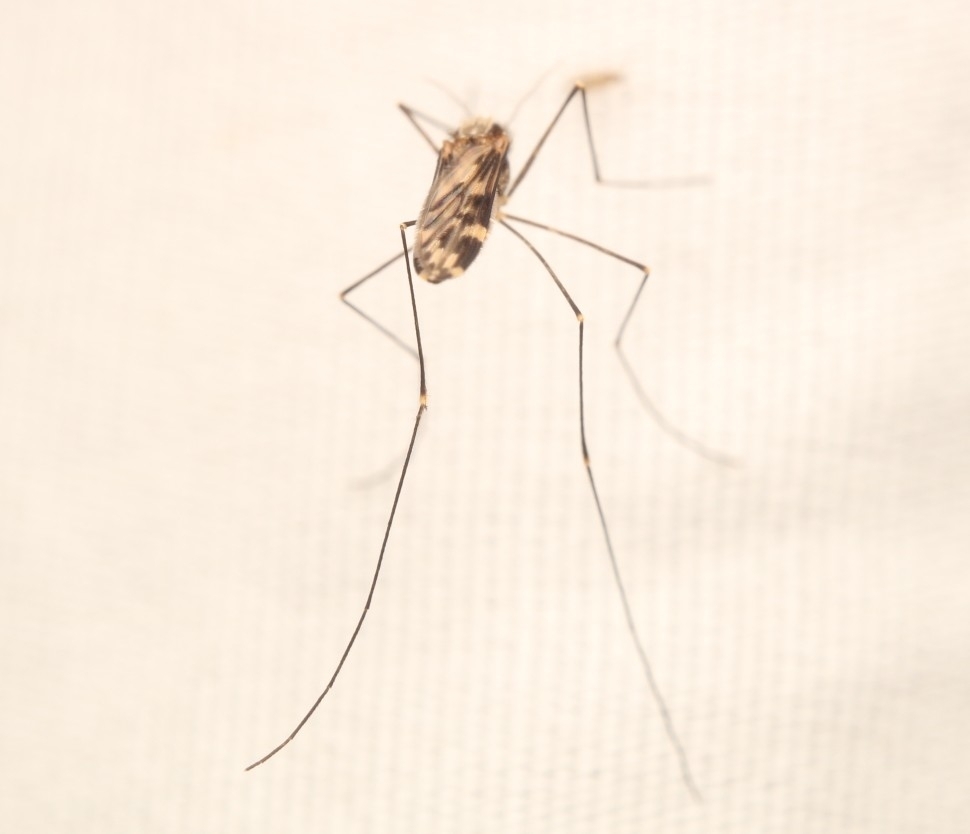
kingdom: Animalia
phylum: Arthropoda
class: Insecta
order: Diptera
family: Culicidae
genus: Anopheles
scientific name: Anopheles punctipennis
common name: Woodland malaria mosquito
